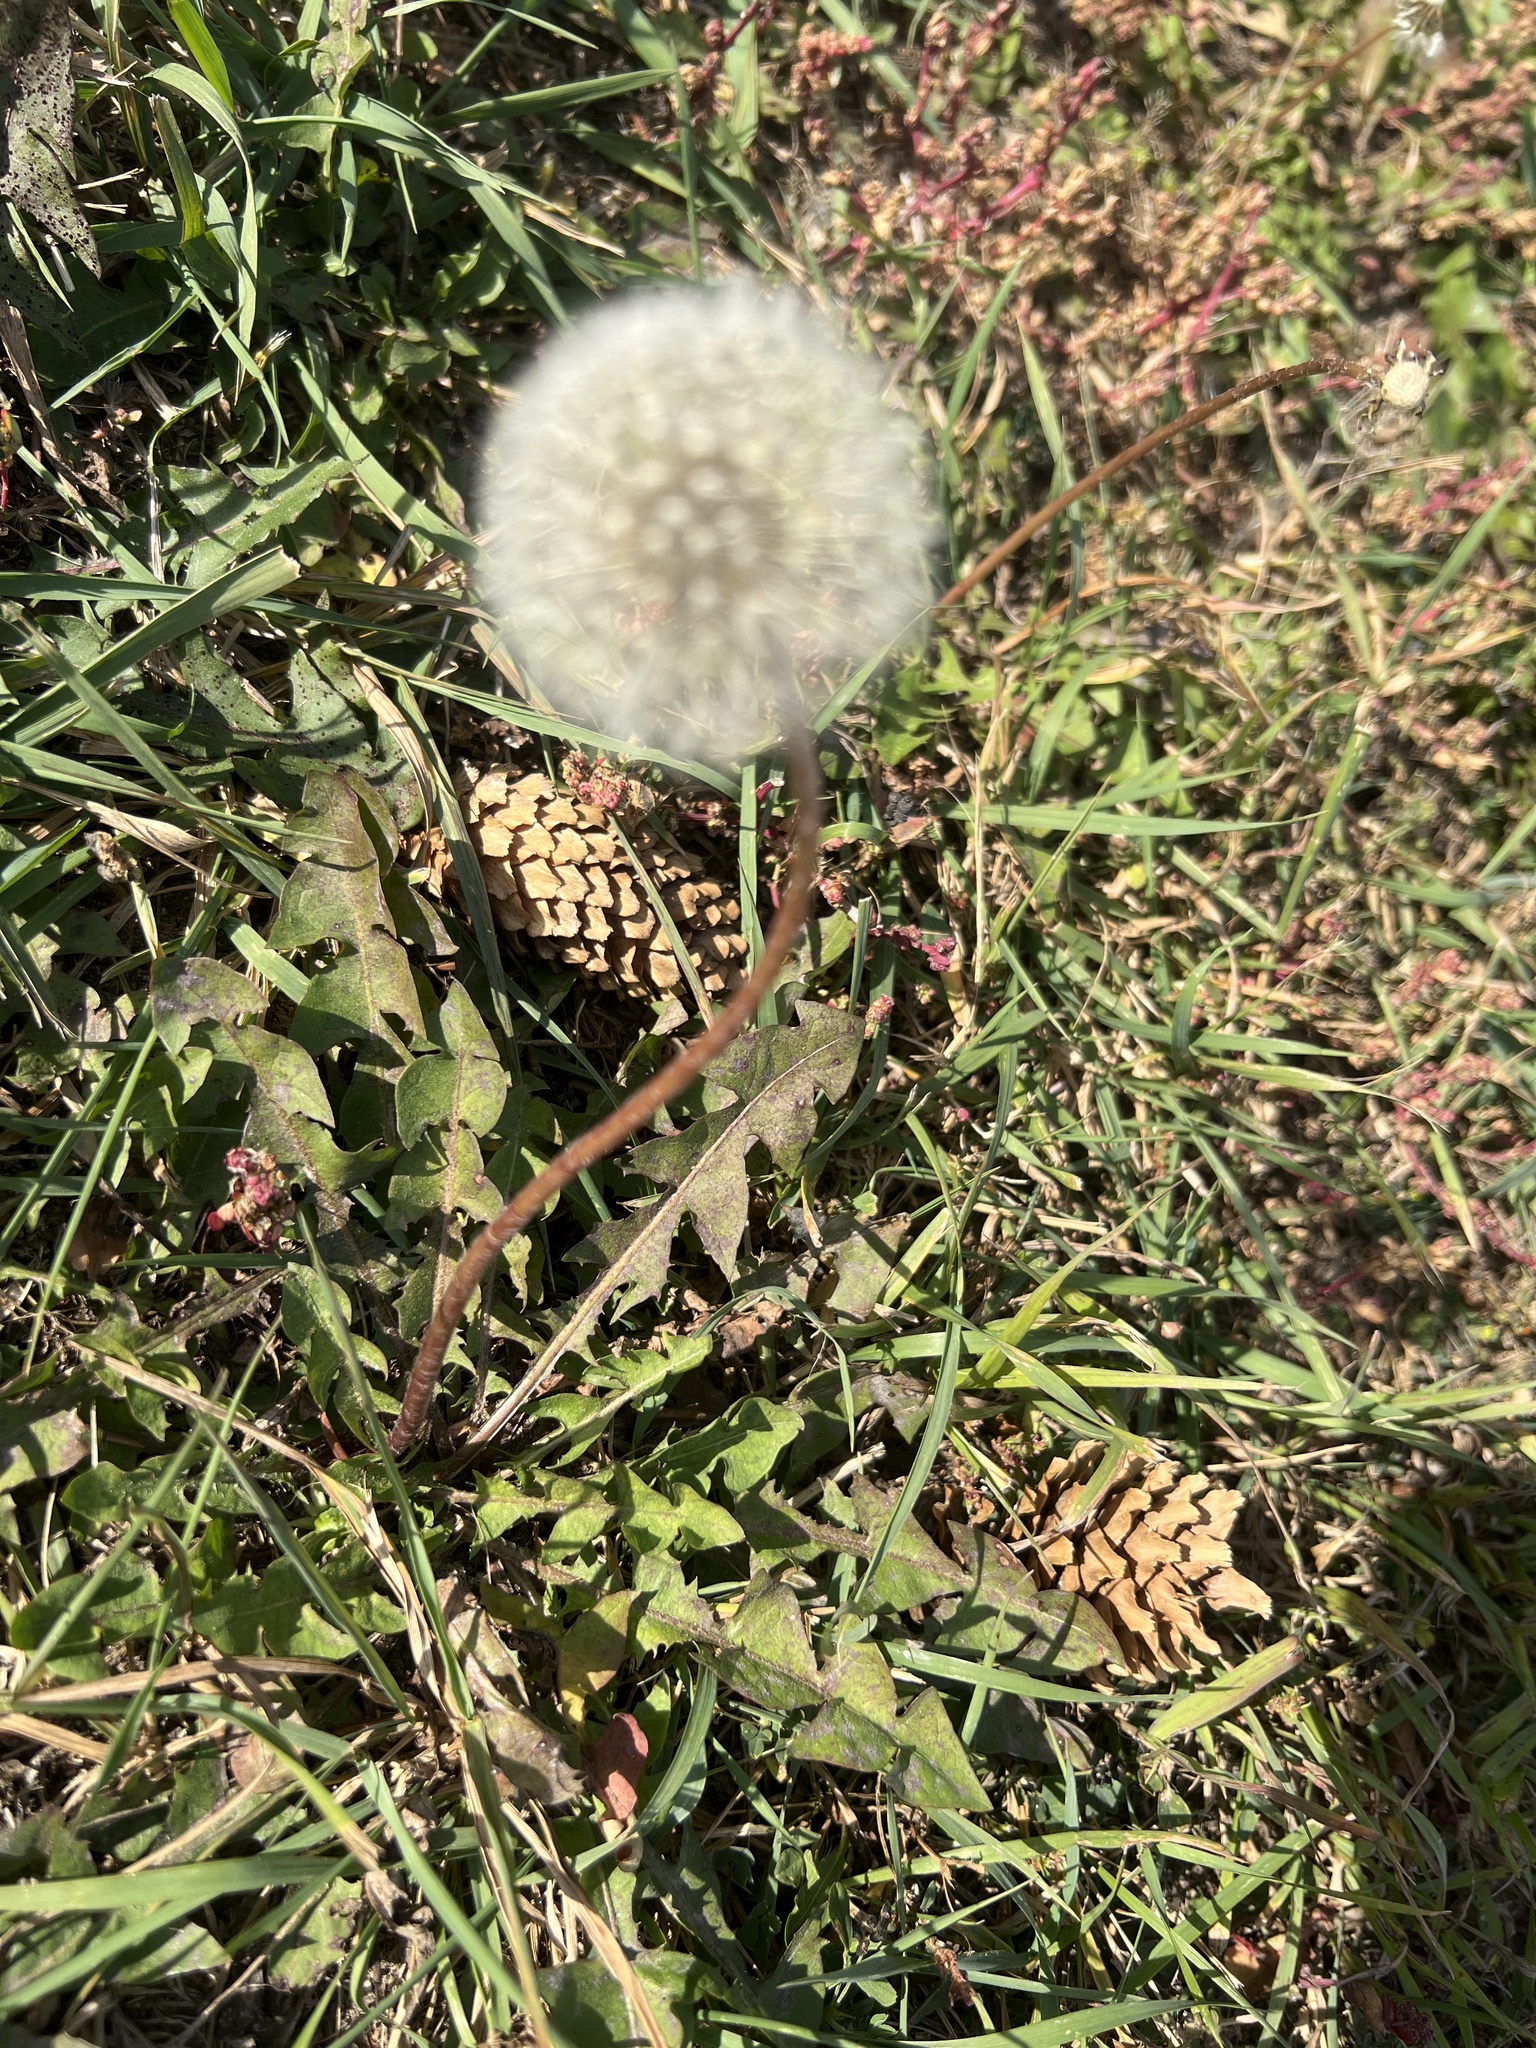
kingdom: Plantae
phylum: Tracheophyta
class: Magnoliopsida
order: Asterales
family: Asteraceae
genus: Taraxacum
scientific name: Taraxacum officinale
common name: Common dandelion
